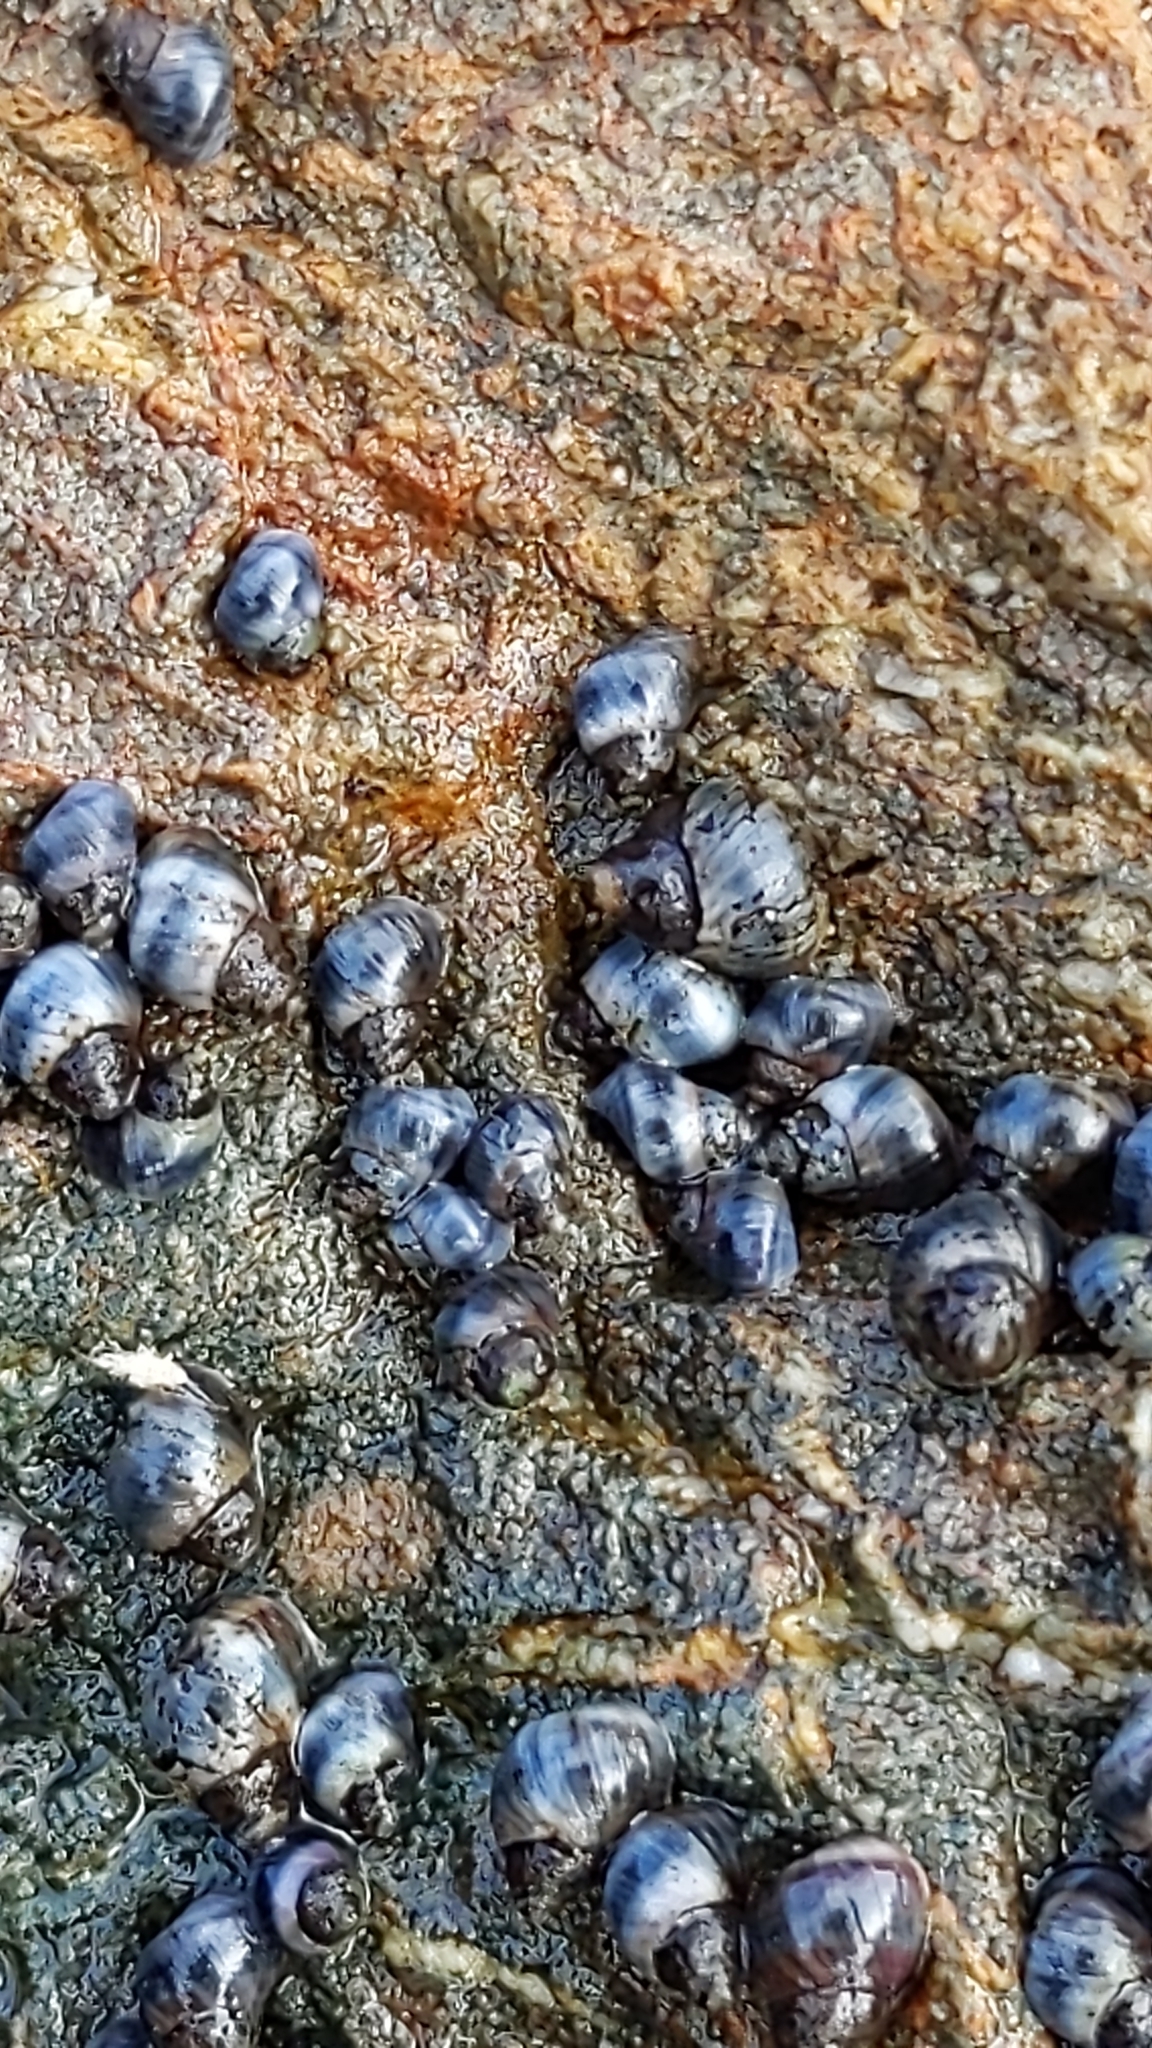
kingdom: Animalia
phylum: Mollusca
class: Gastropoda
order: Littorinimorpha
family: Littorinidae
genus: Austrolittorina
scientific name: Austrolittorina antipodum
